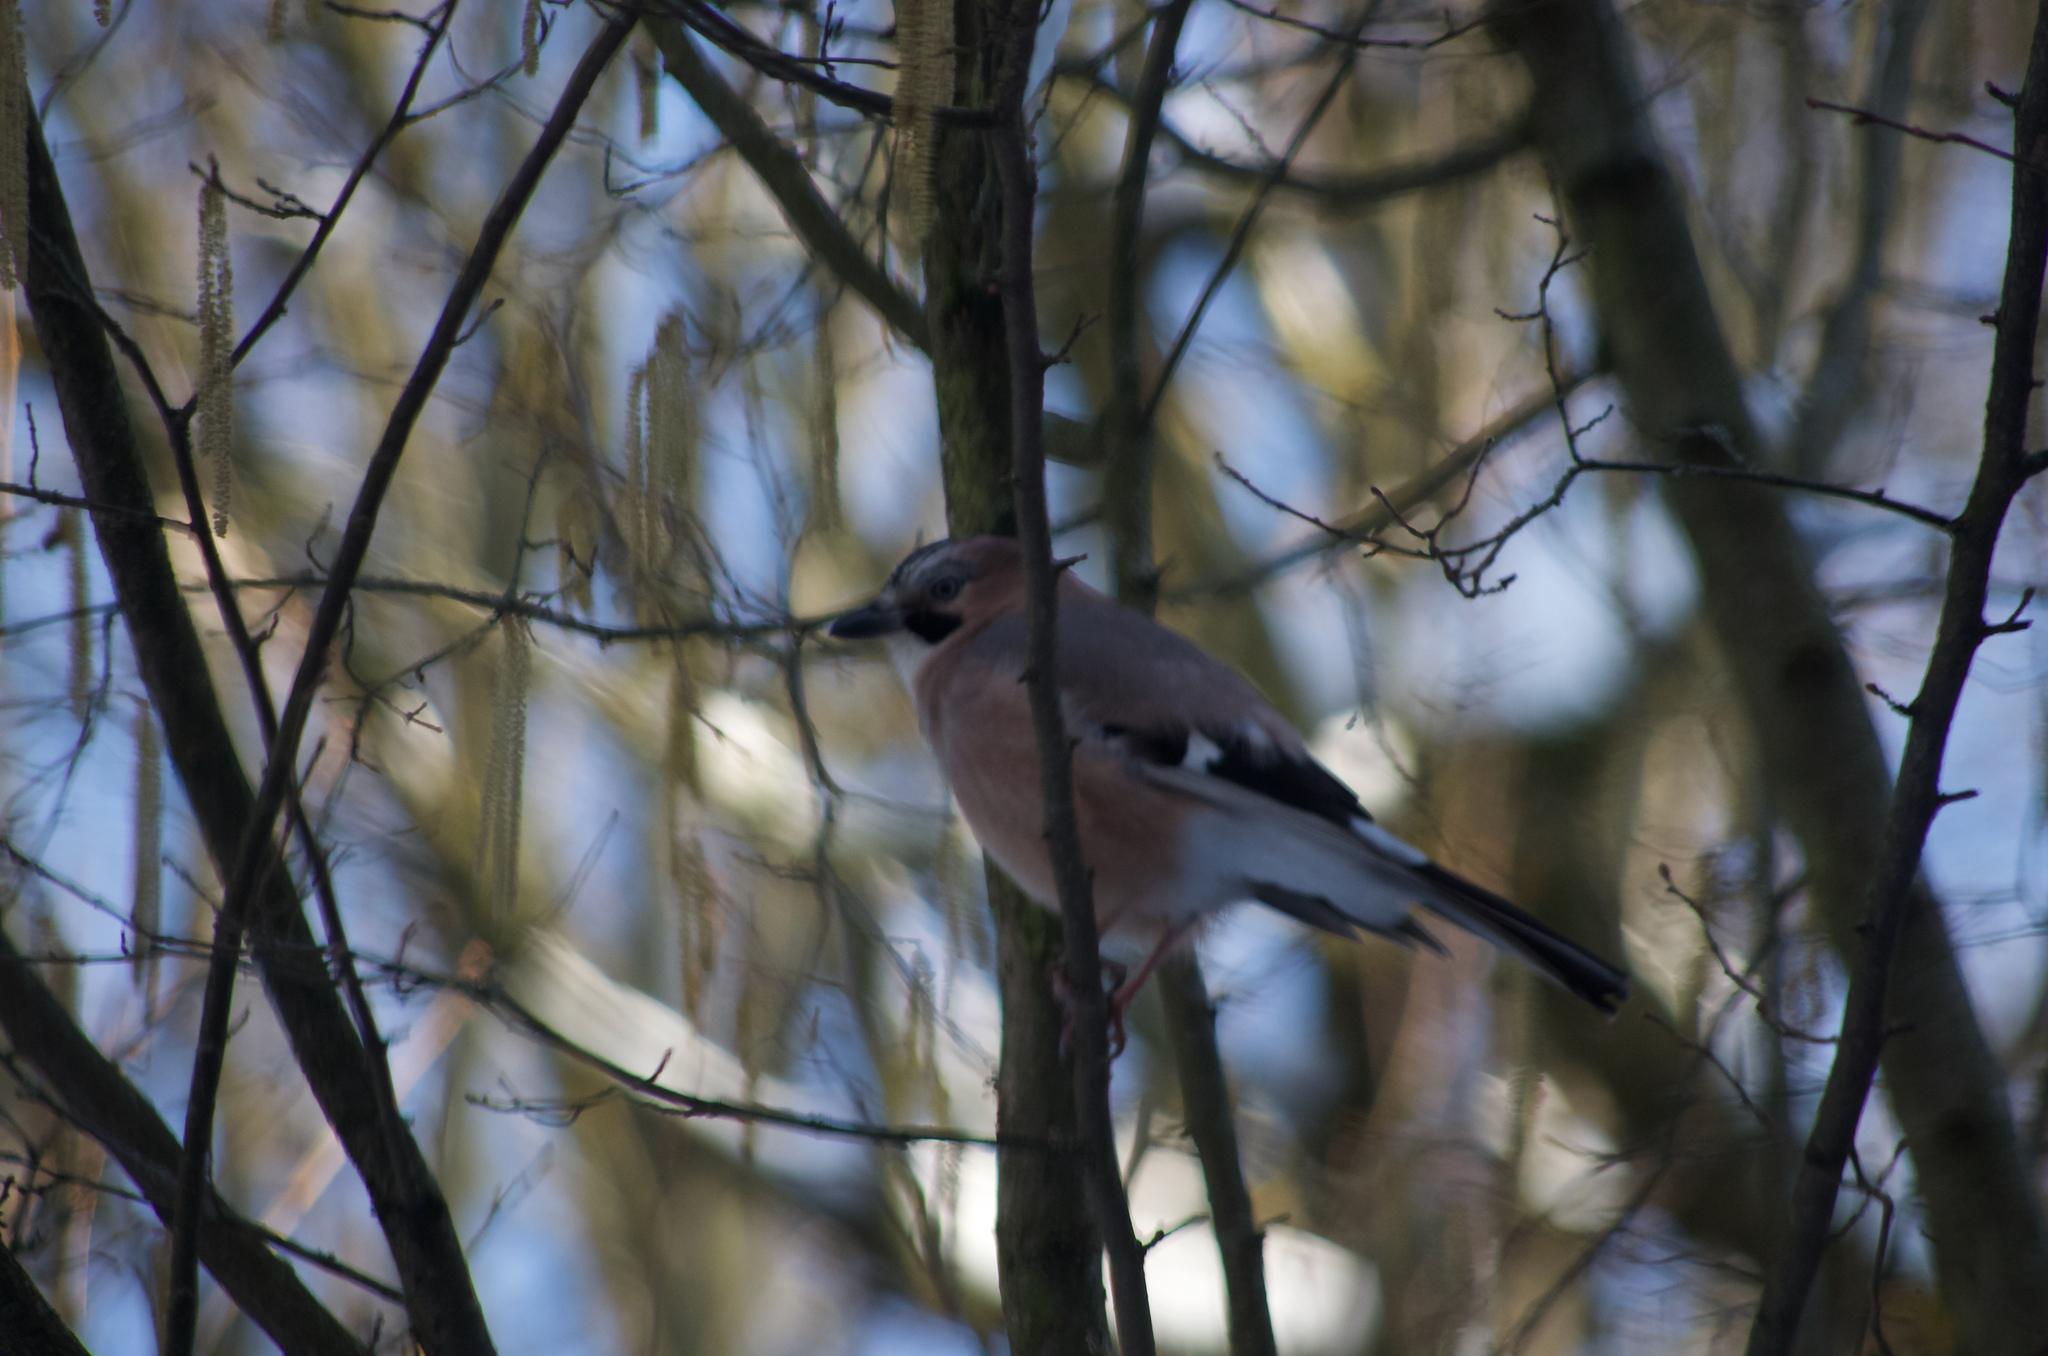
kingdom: Animalia
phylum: Chordata
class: Aves
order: Passeriformes
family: Corvidae
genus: Garrulus
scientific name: Garrulus glandarius
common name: Eurasian jay
